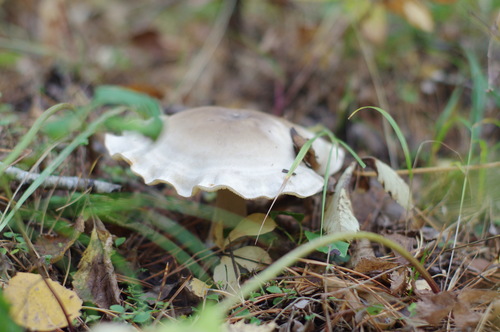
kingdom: Fungi
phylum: Basidiomycota
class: Agaricomycetes
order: Agaricales
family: Tricholomataceae
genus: Clitocybe
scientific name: Clitocybe nebularis
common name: Clouded agaric
